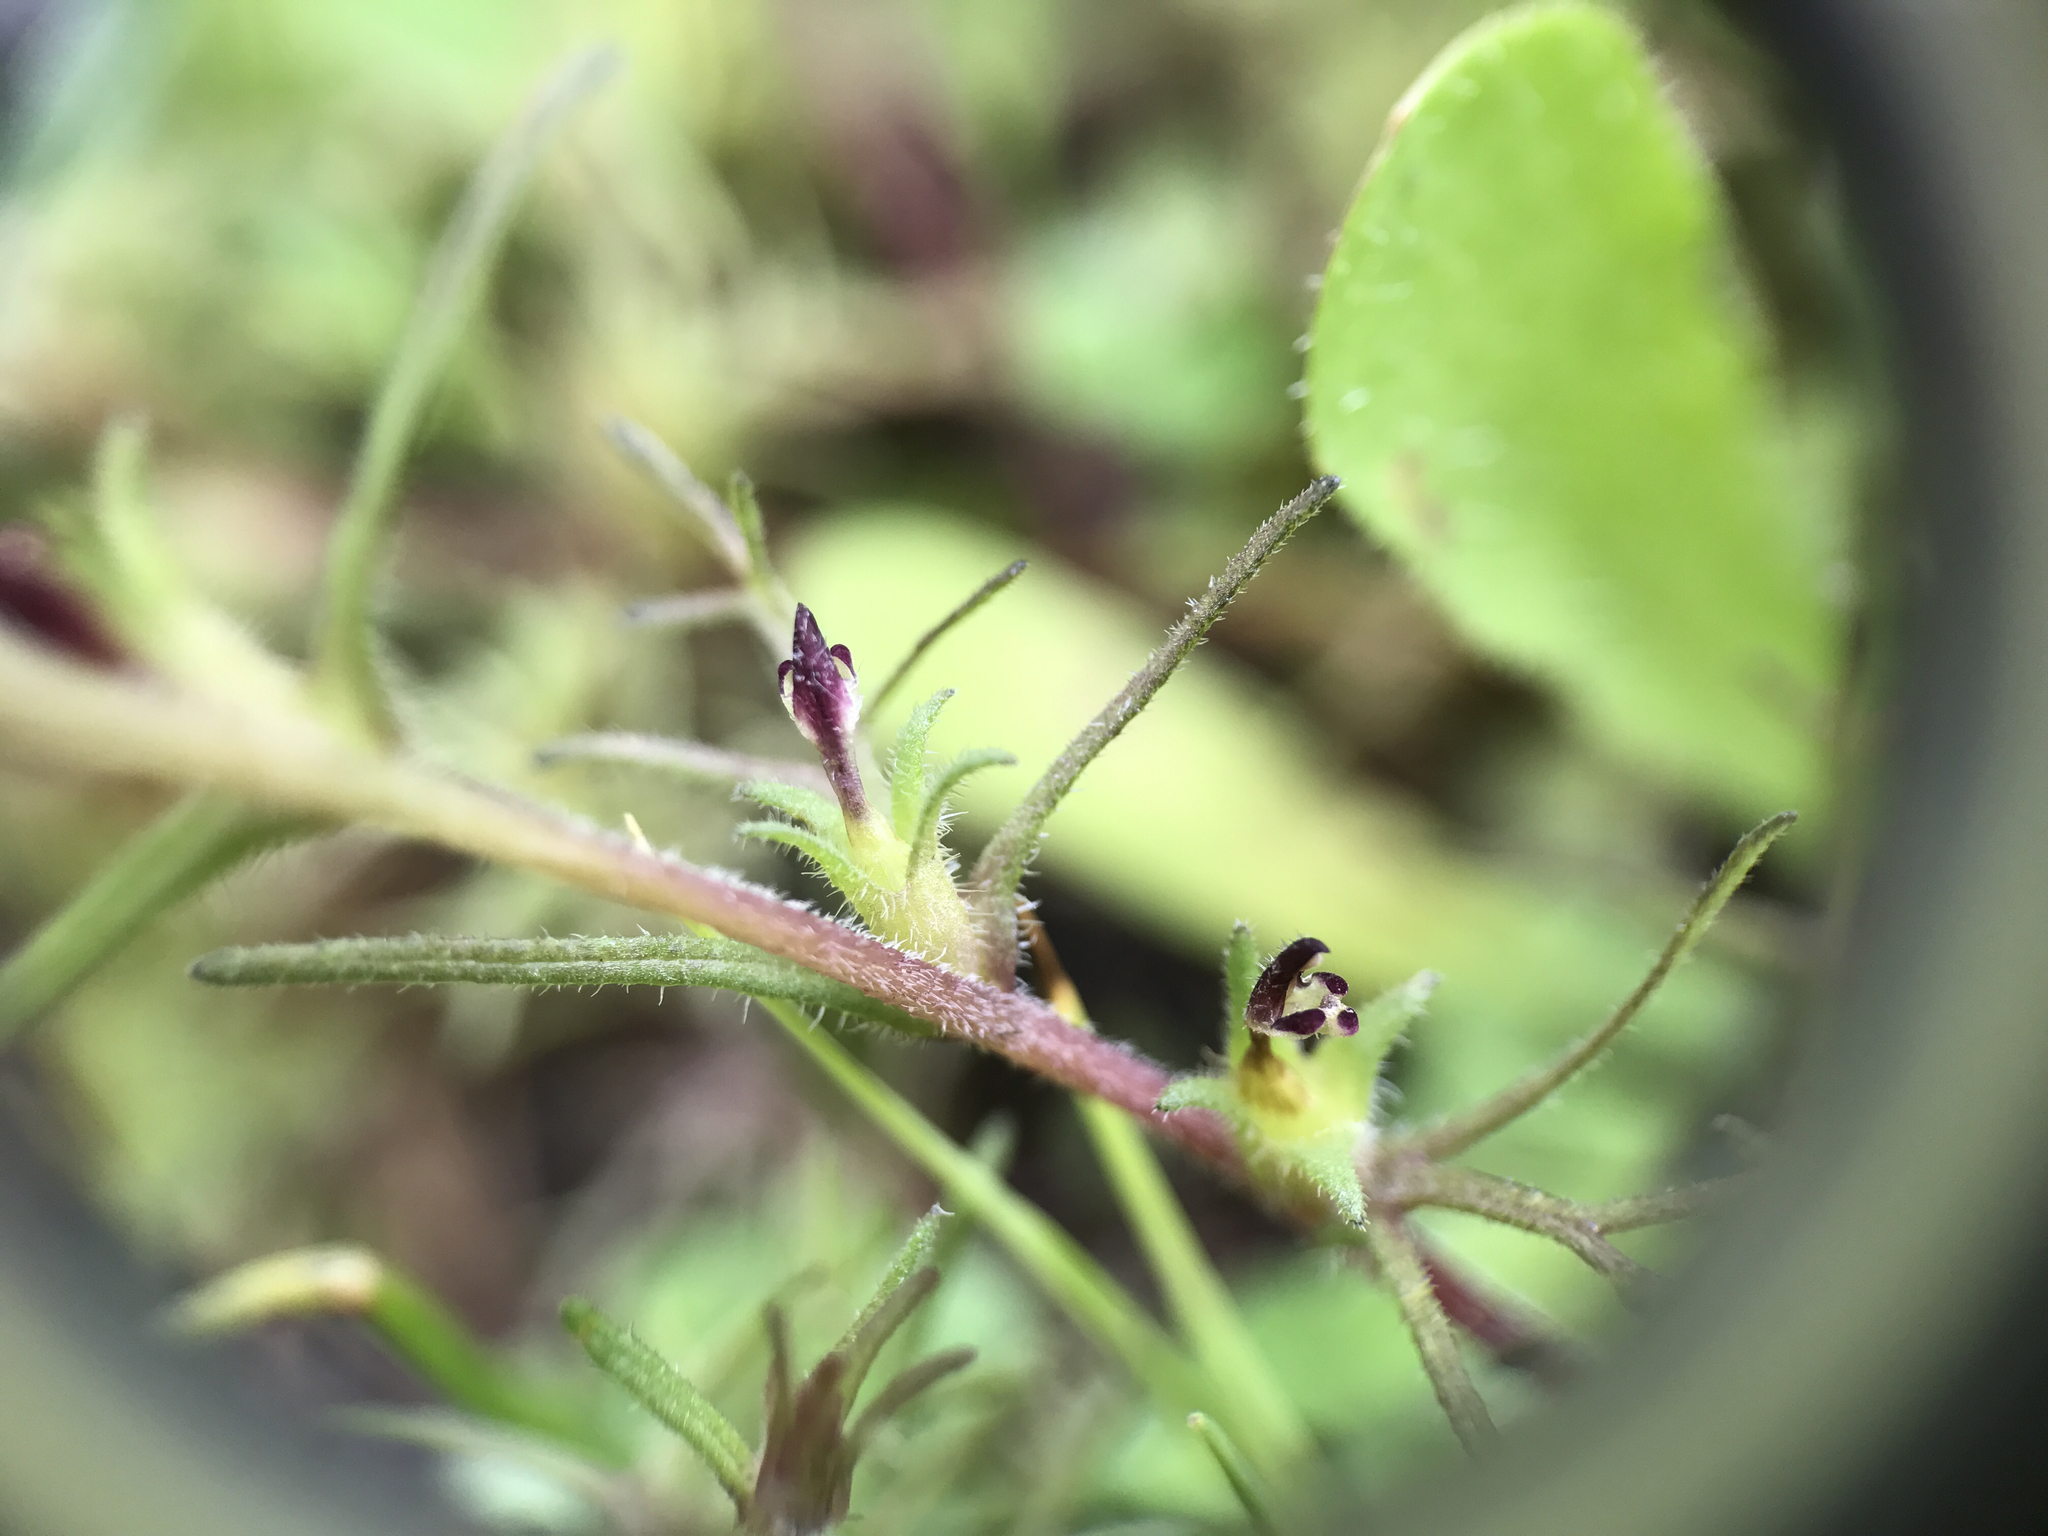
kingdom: Plantae
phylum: Tracheophyta
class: Magnoliopsida
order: Lamiales
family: Orobanchaceae
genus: Triphysaria
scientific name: Triphysaria pusilla
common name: Dwarf false owl-clover
